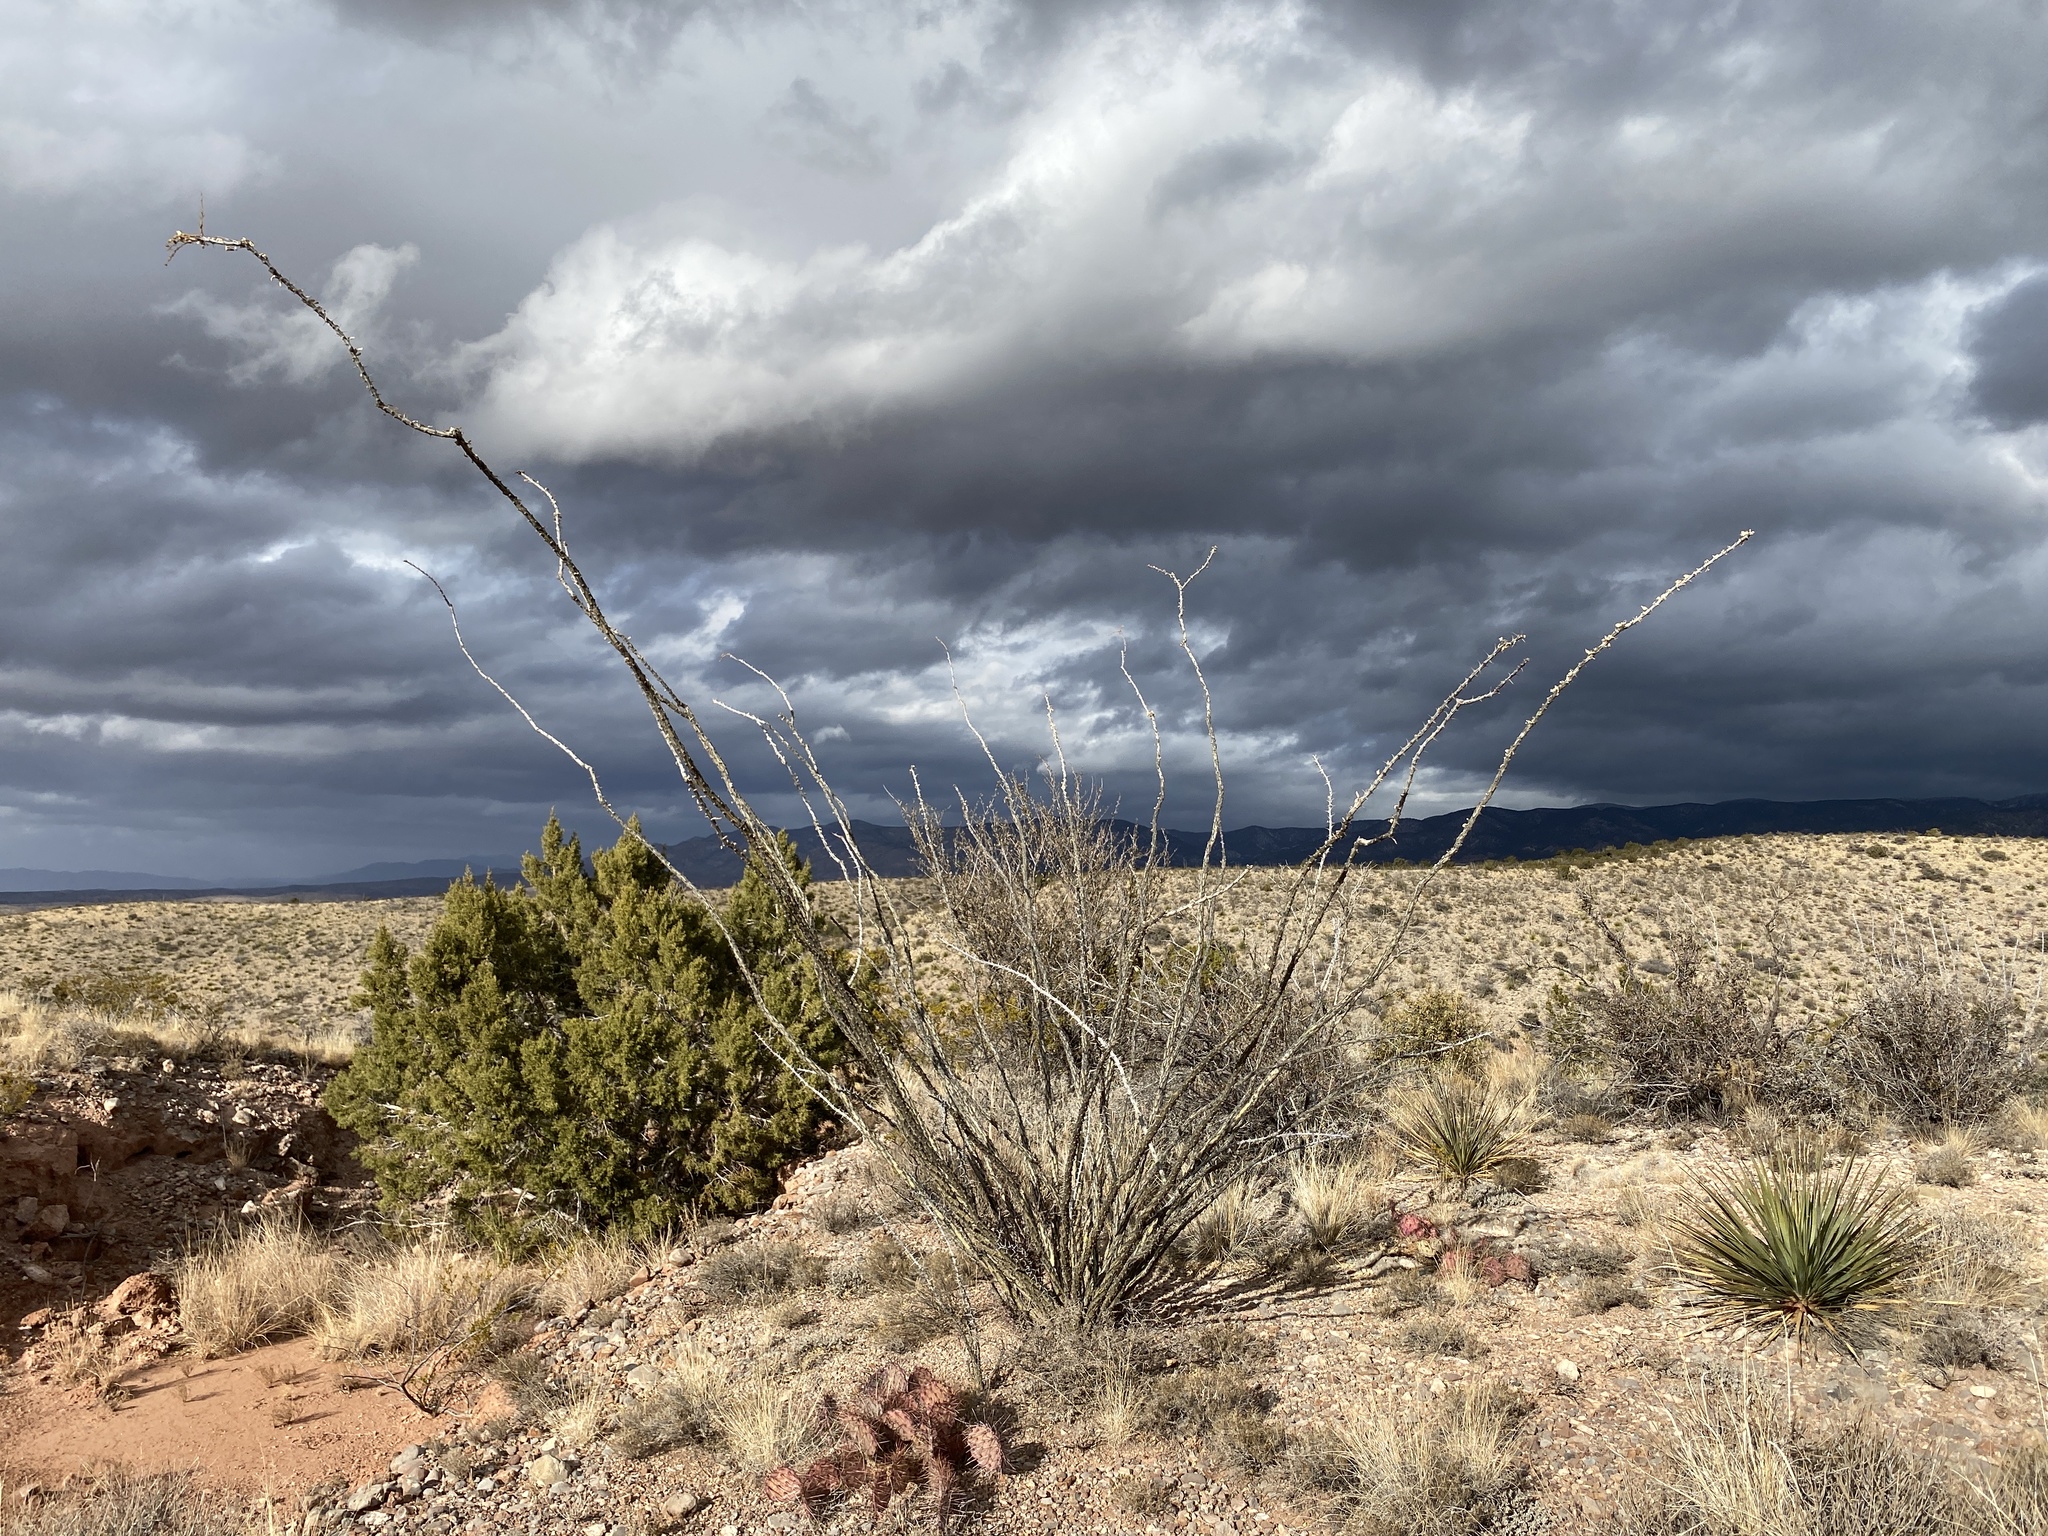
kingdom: Plantae
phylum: Tracheophyta
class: Magnoliopsida
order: Ericales
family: Fouquieriaceae
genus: Fouquieria
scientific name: Fouquieria splendens
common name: Vine-cactus
